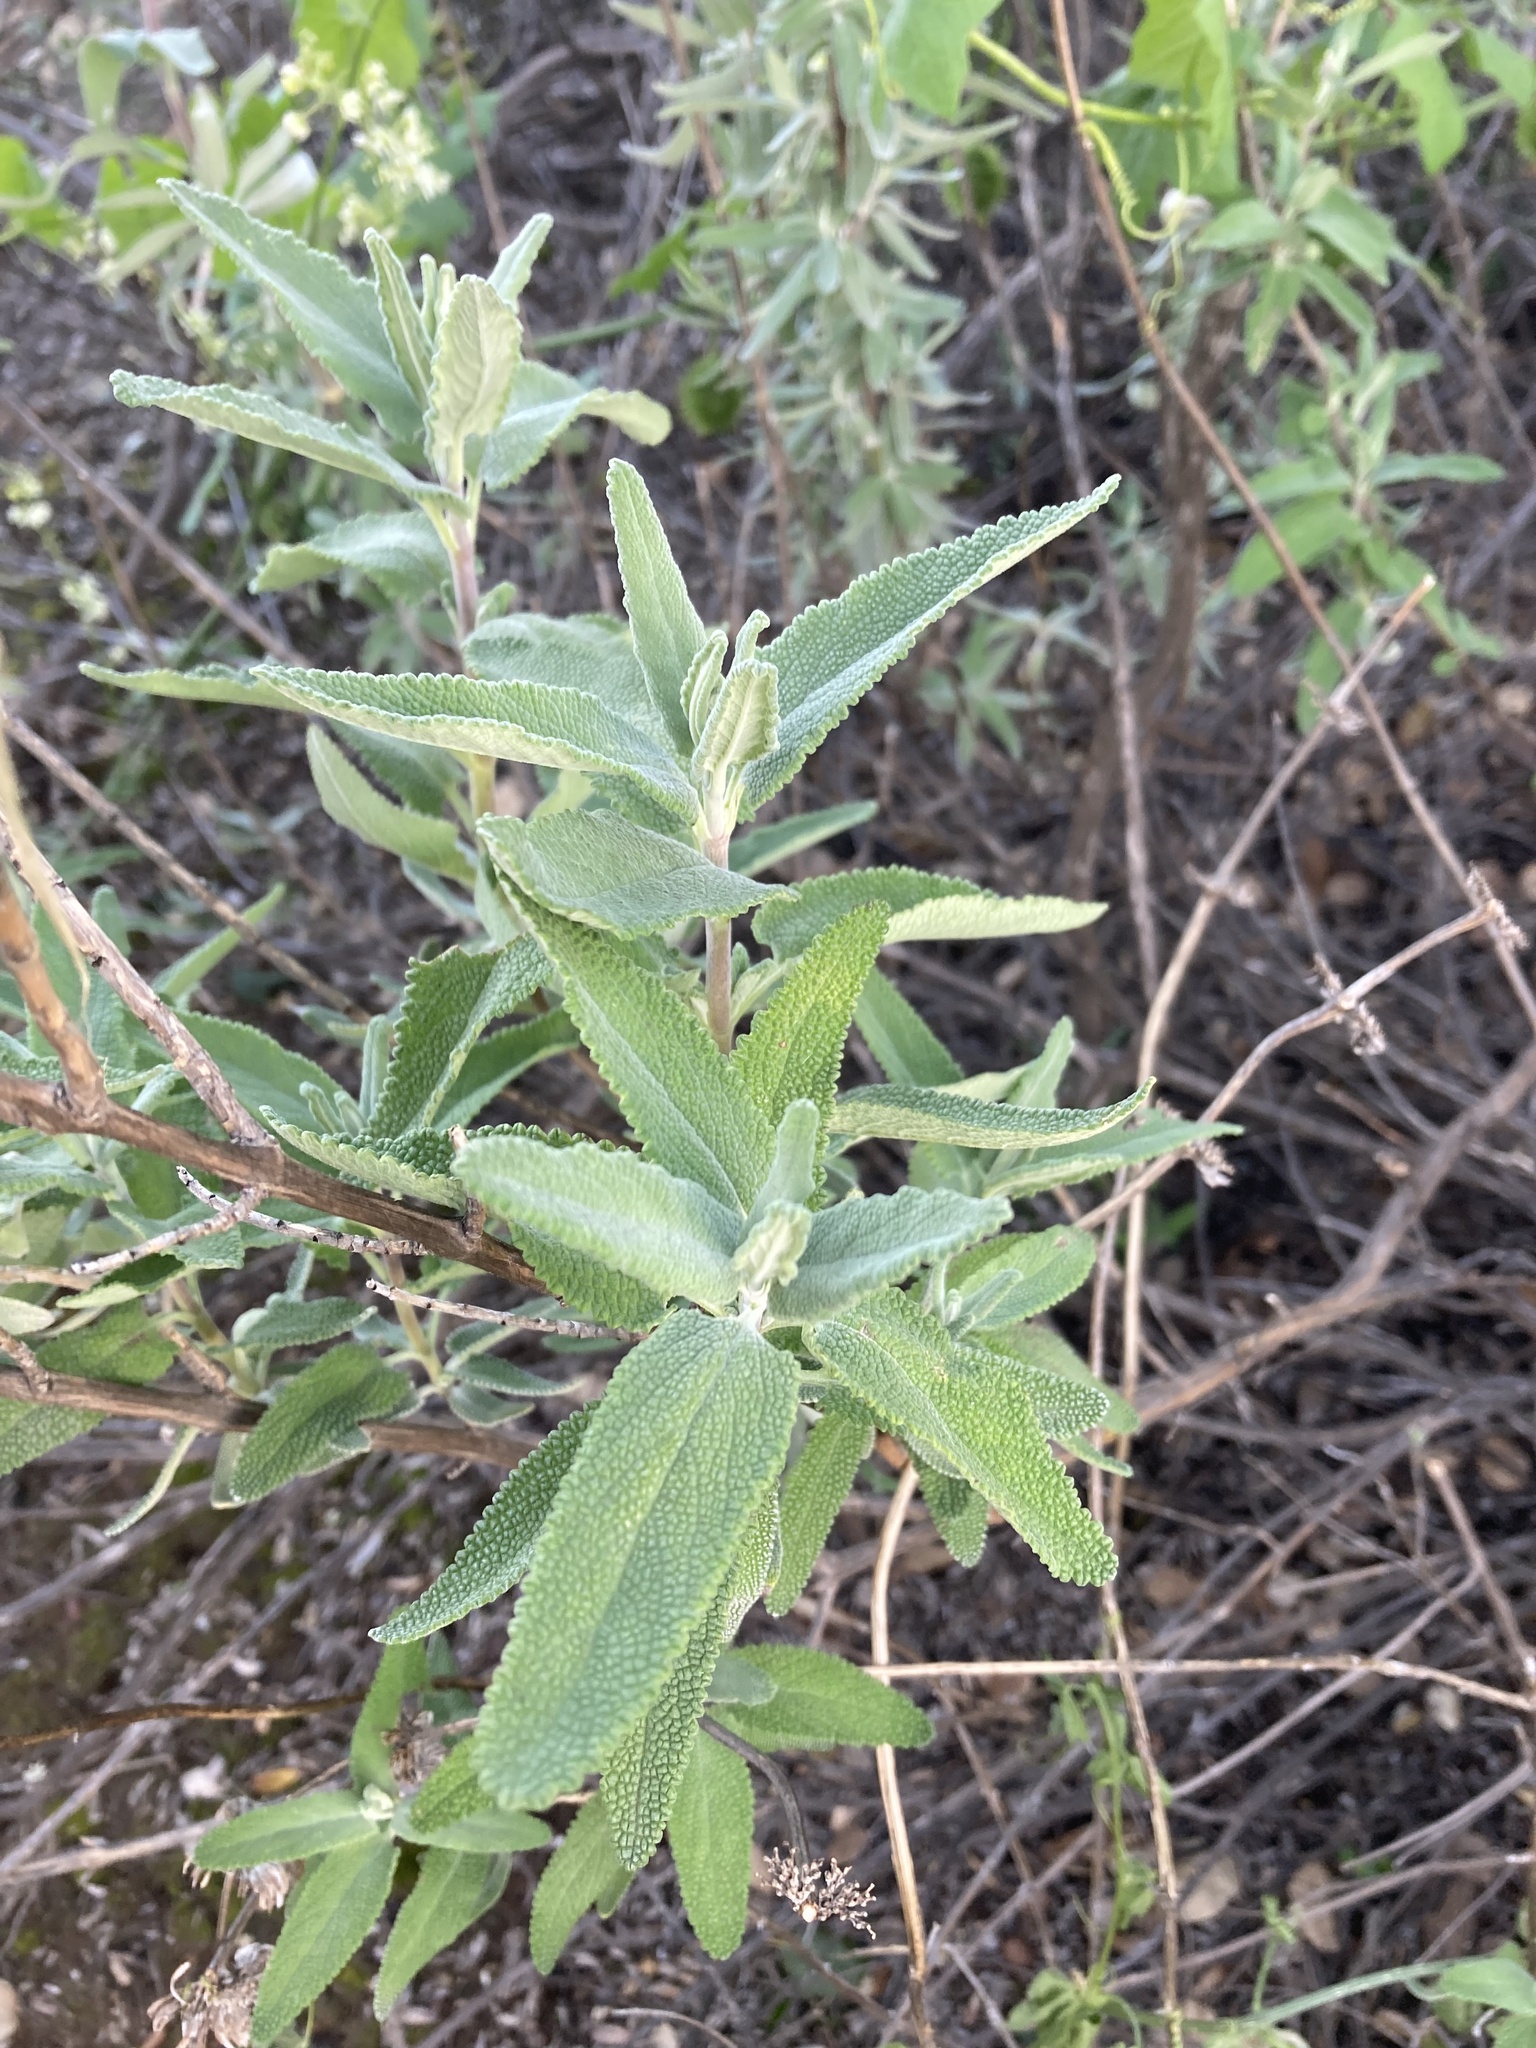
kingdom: Plantae
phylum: Tracheophyta
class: Magnoliopsida
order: Lamiales
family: Lamiaceae
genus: Salvia
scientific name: Salvia leucophylla
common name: Purple sage
